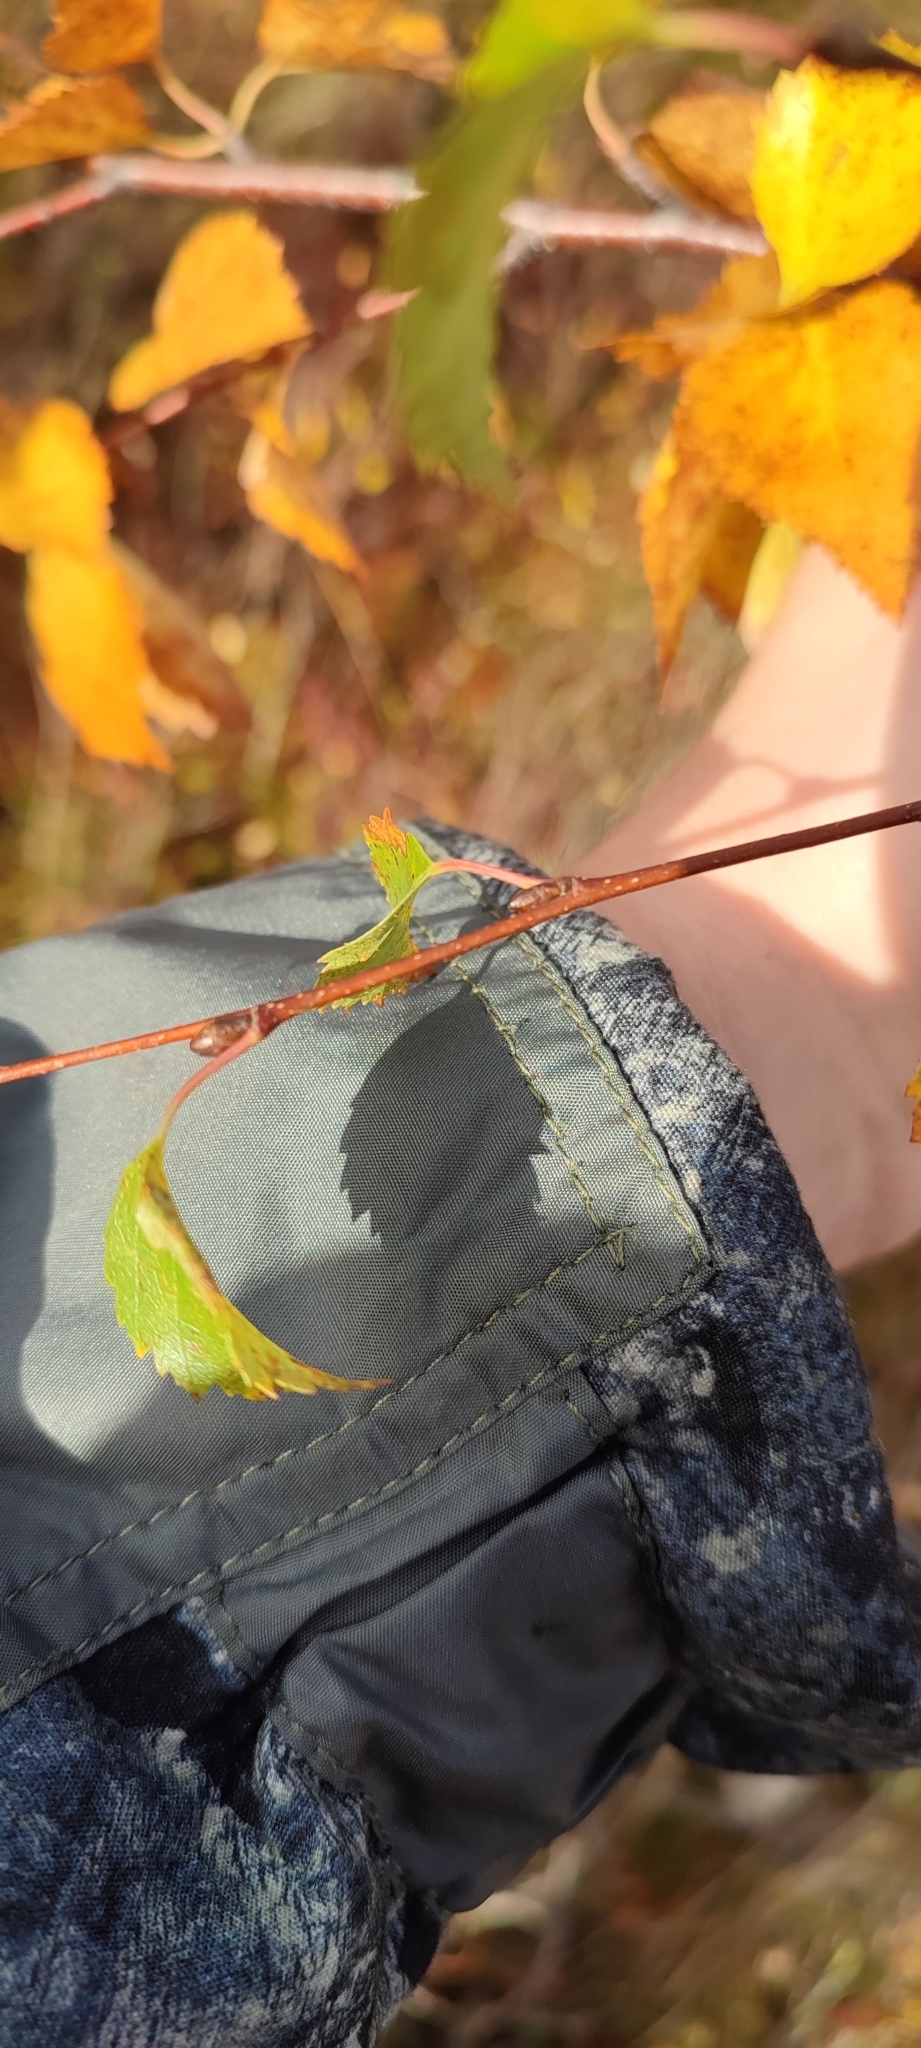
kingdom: Plantae
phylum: Tracheophyta
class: Magnoliopsida
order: Fagales
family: Betulaceae
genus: Betula
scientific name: Betula pubescens
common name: Downy birch
